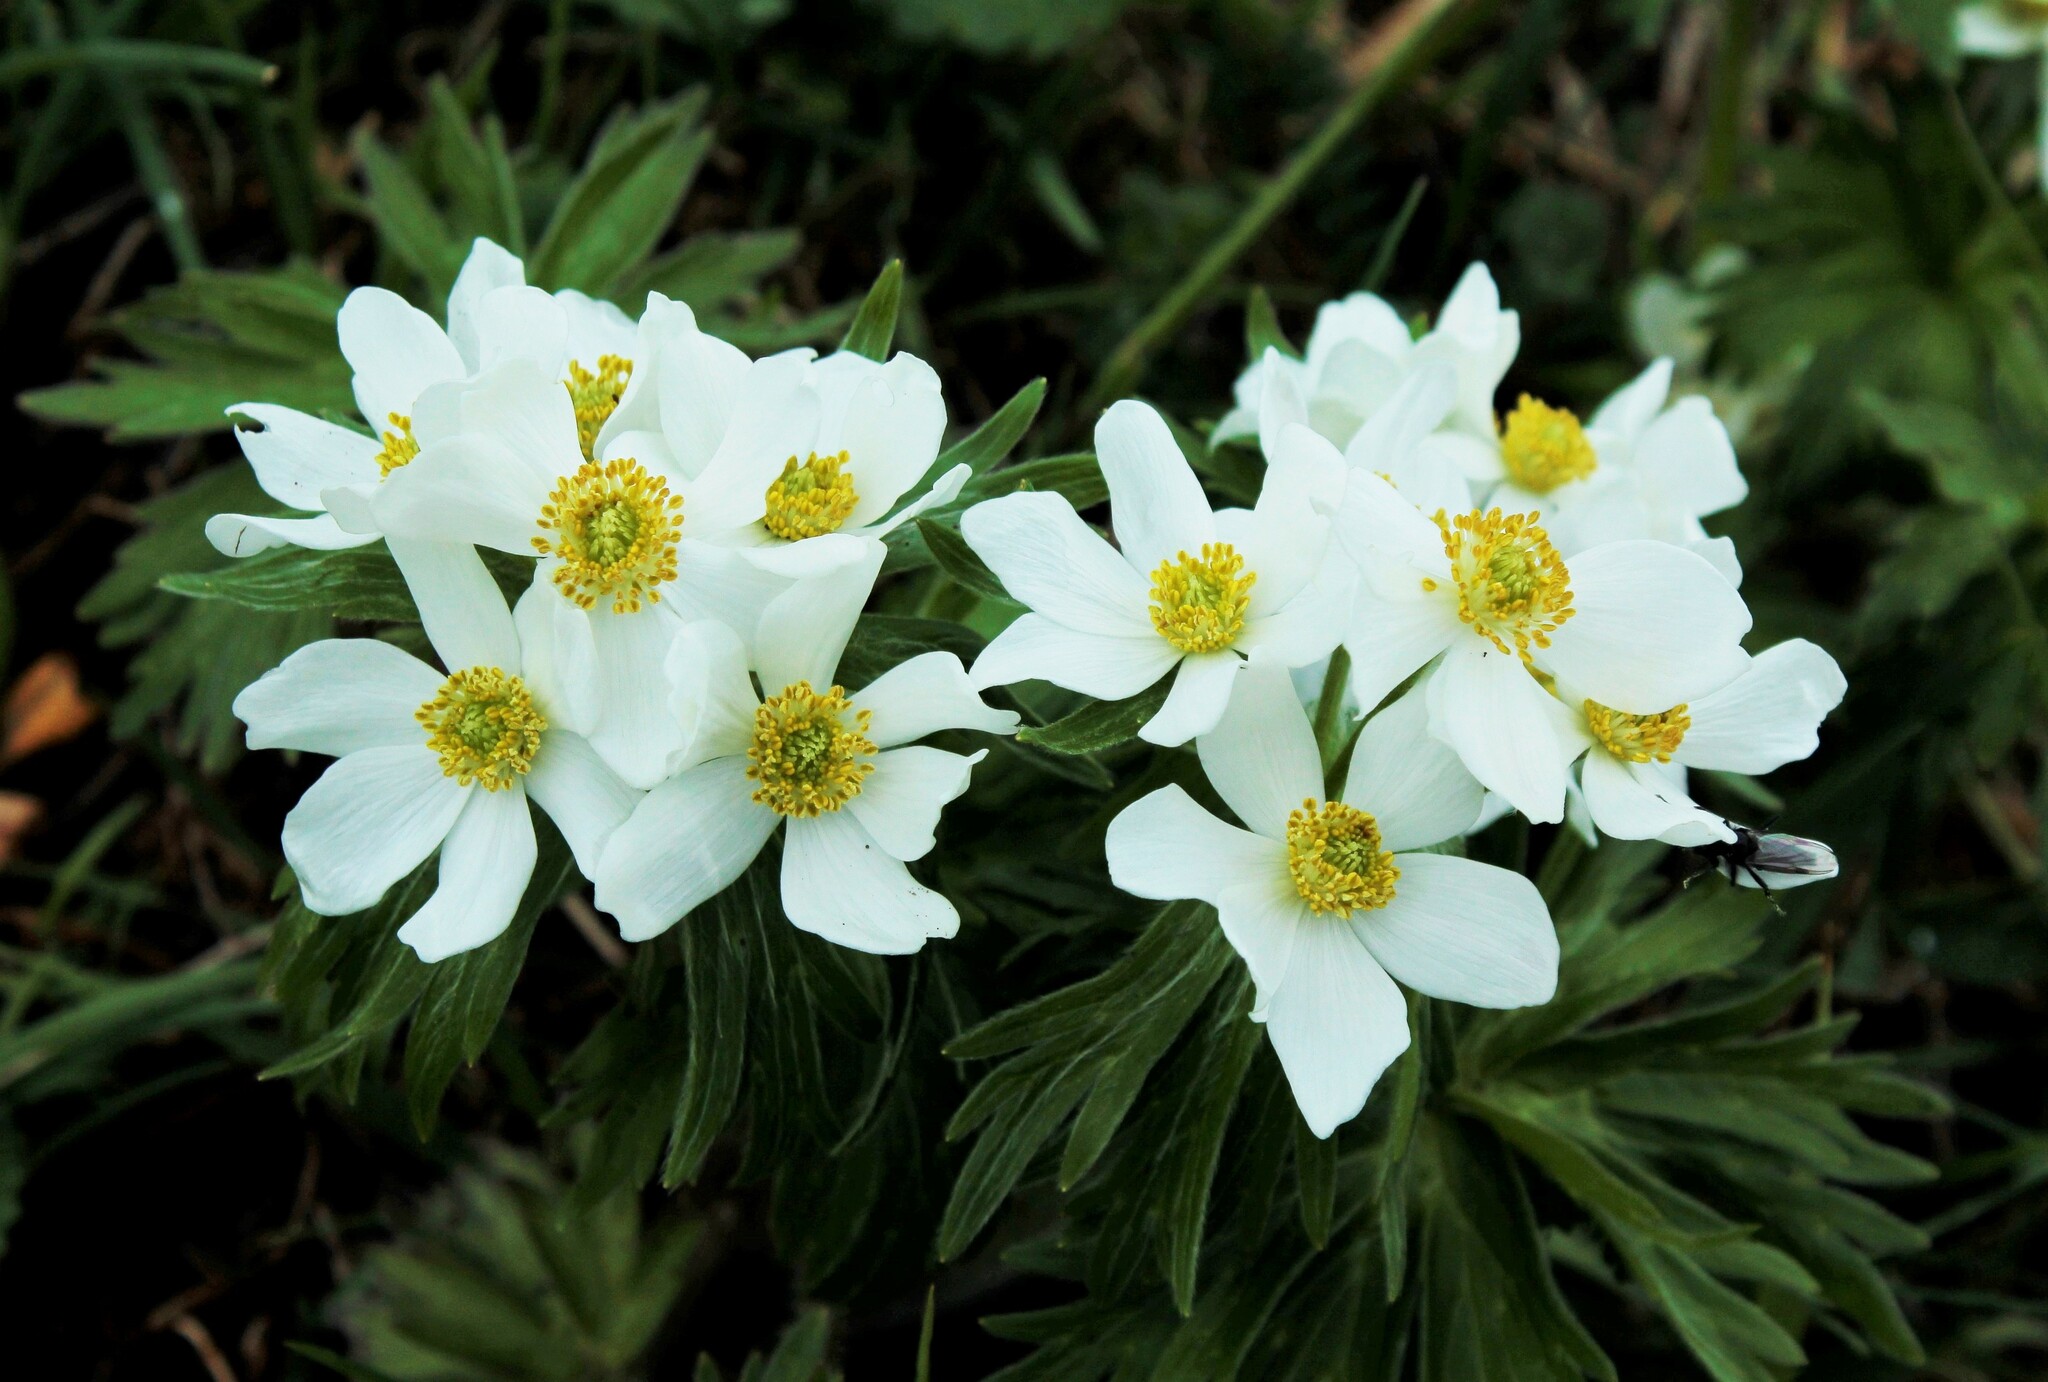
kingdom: Plantae
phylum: Tracheophyta
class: Magnoliopsida
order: Ranunculales
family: Ranunculaceae
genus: Anemonastrum
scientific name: Anemonastrum narcissiflorum
